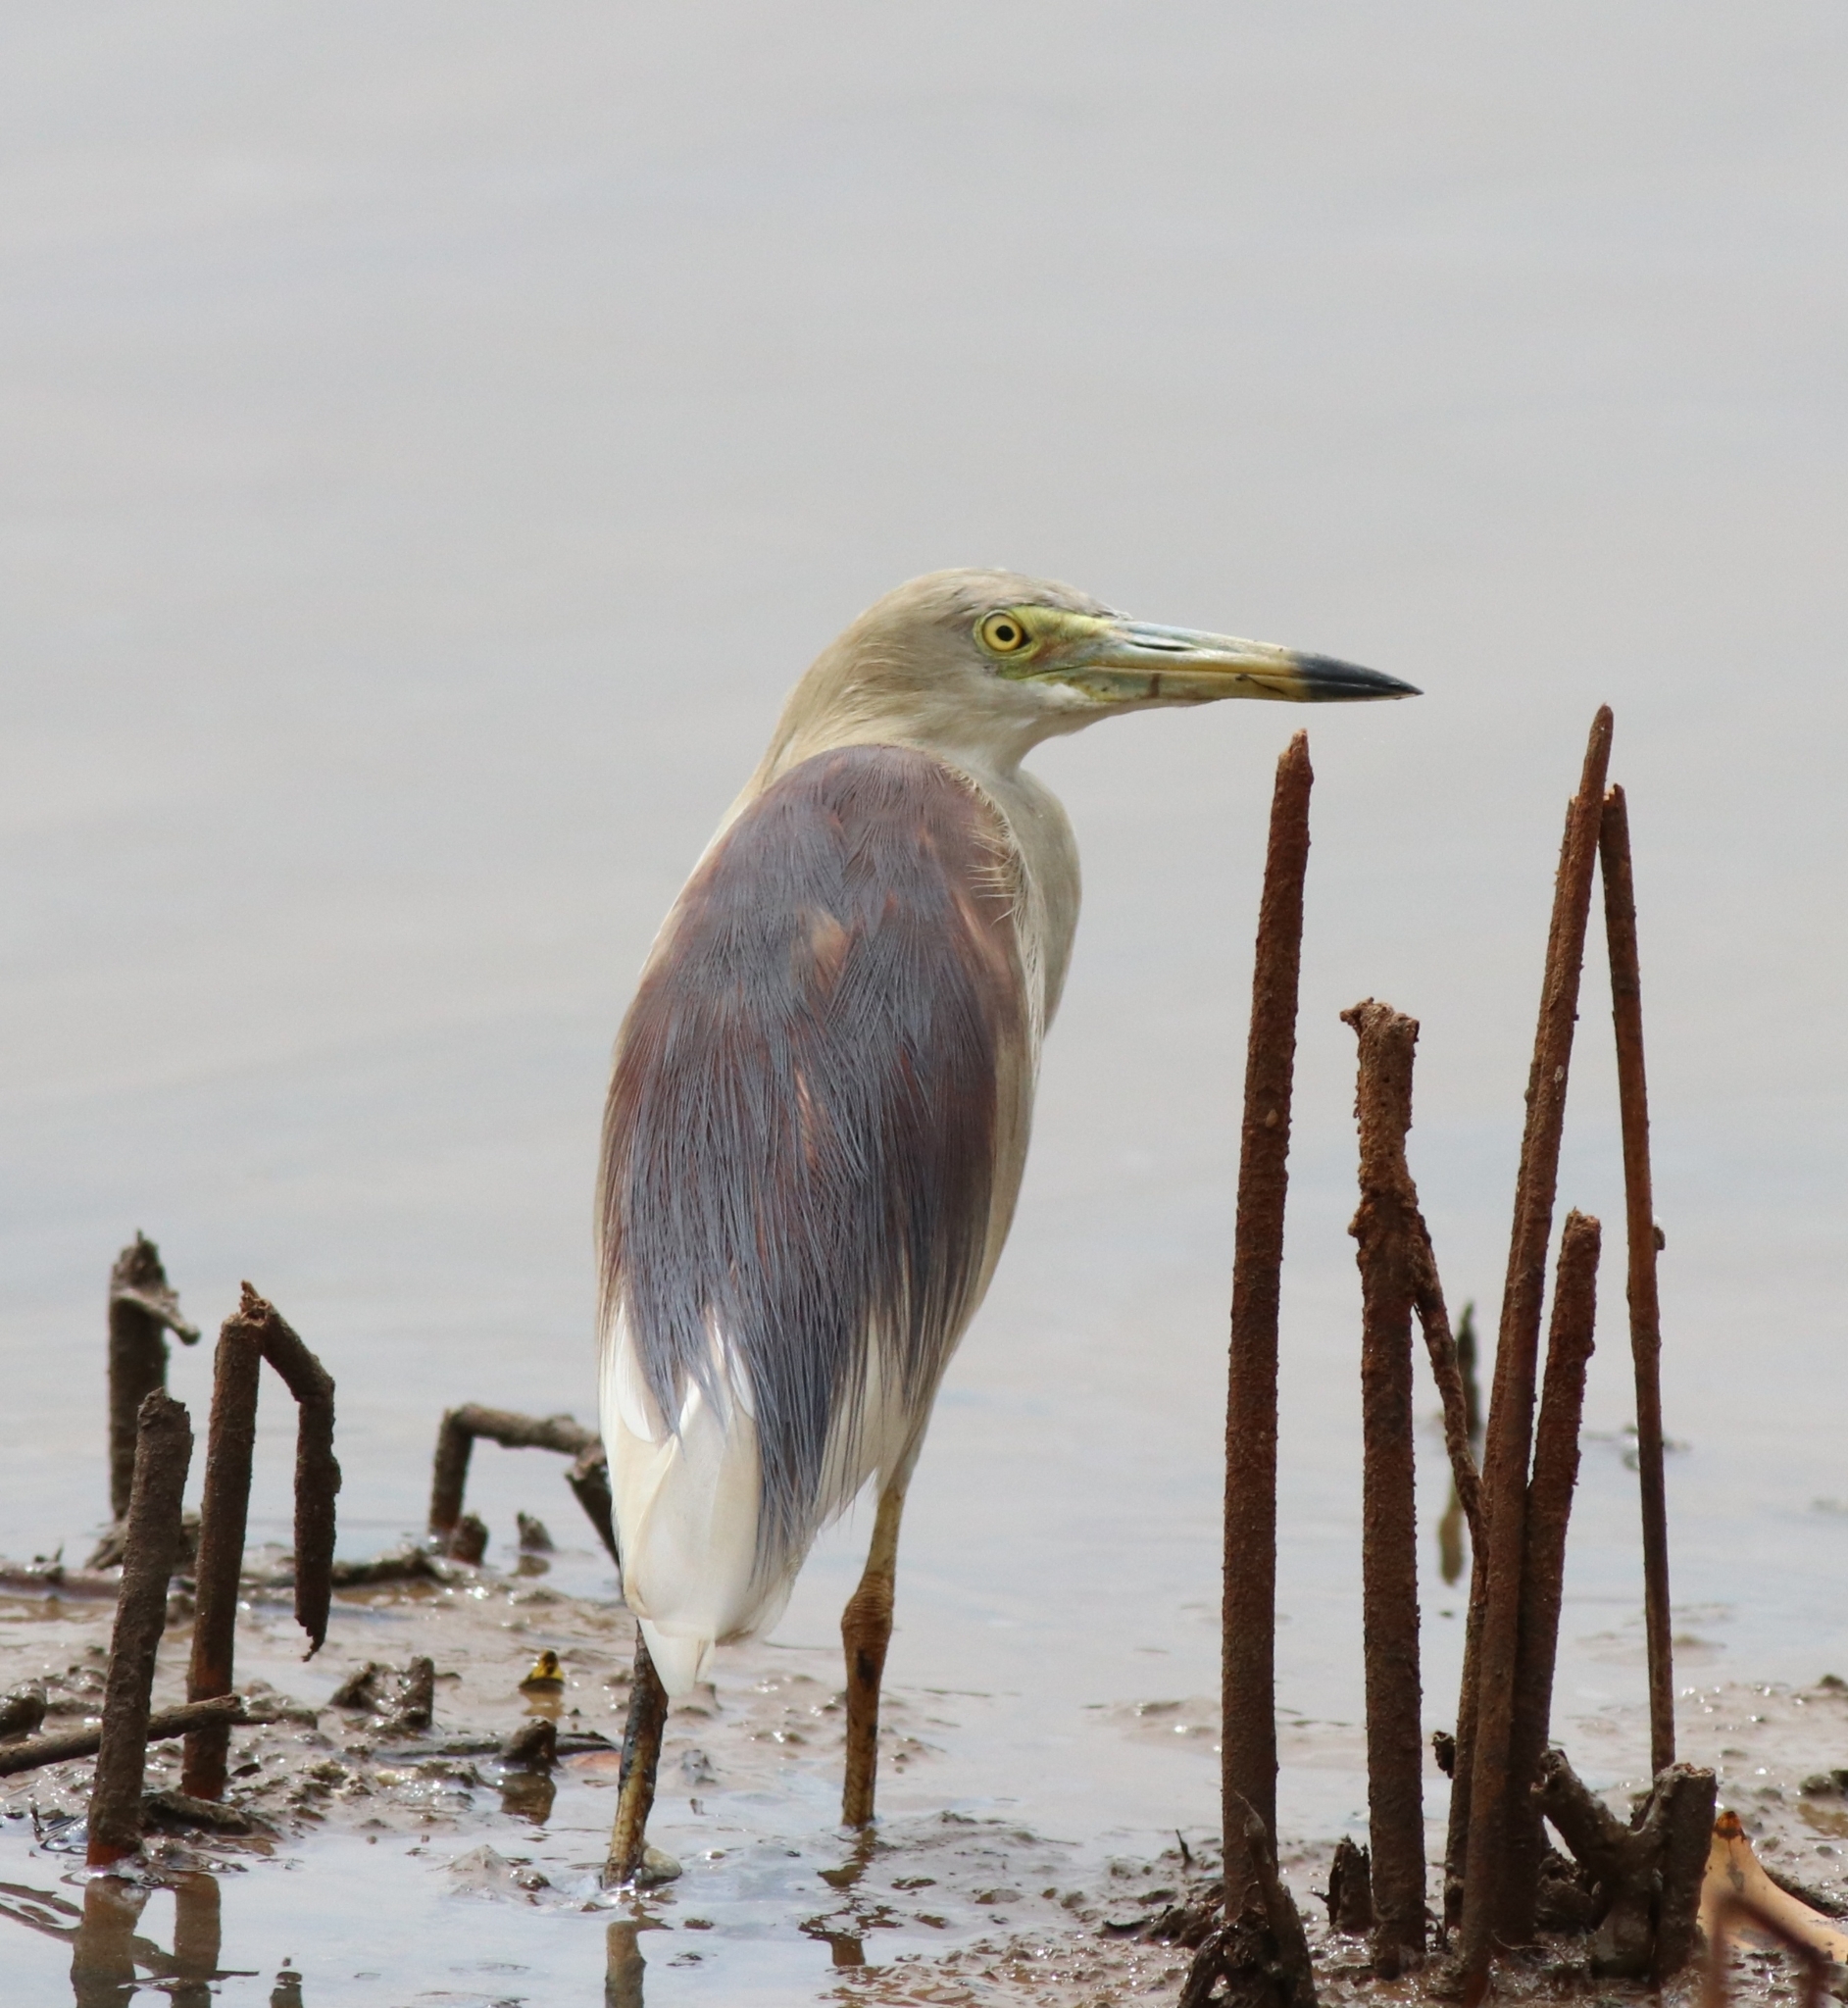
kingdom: Animalia
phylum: Chordata
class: Aves
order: Pelecaniformes
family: Ardeidae
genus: Ardeola
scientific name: Ardeola grayii
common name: Indian pond heron
